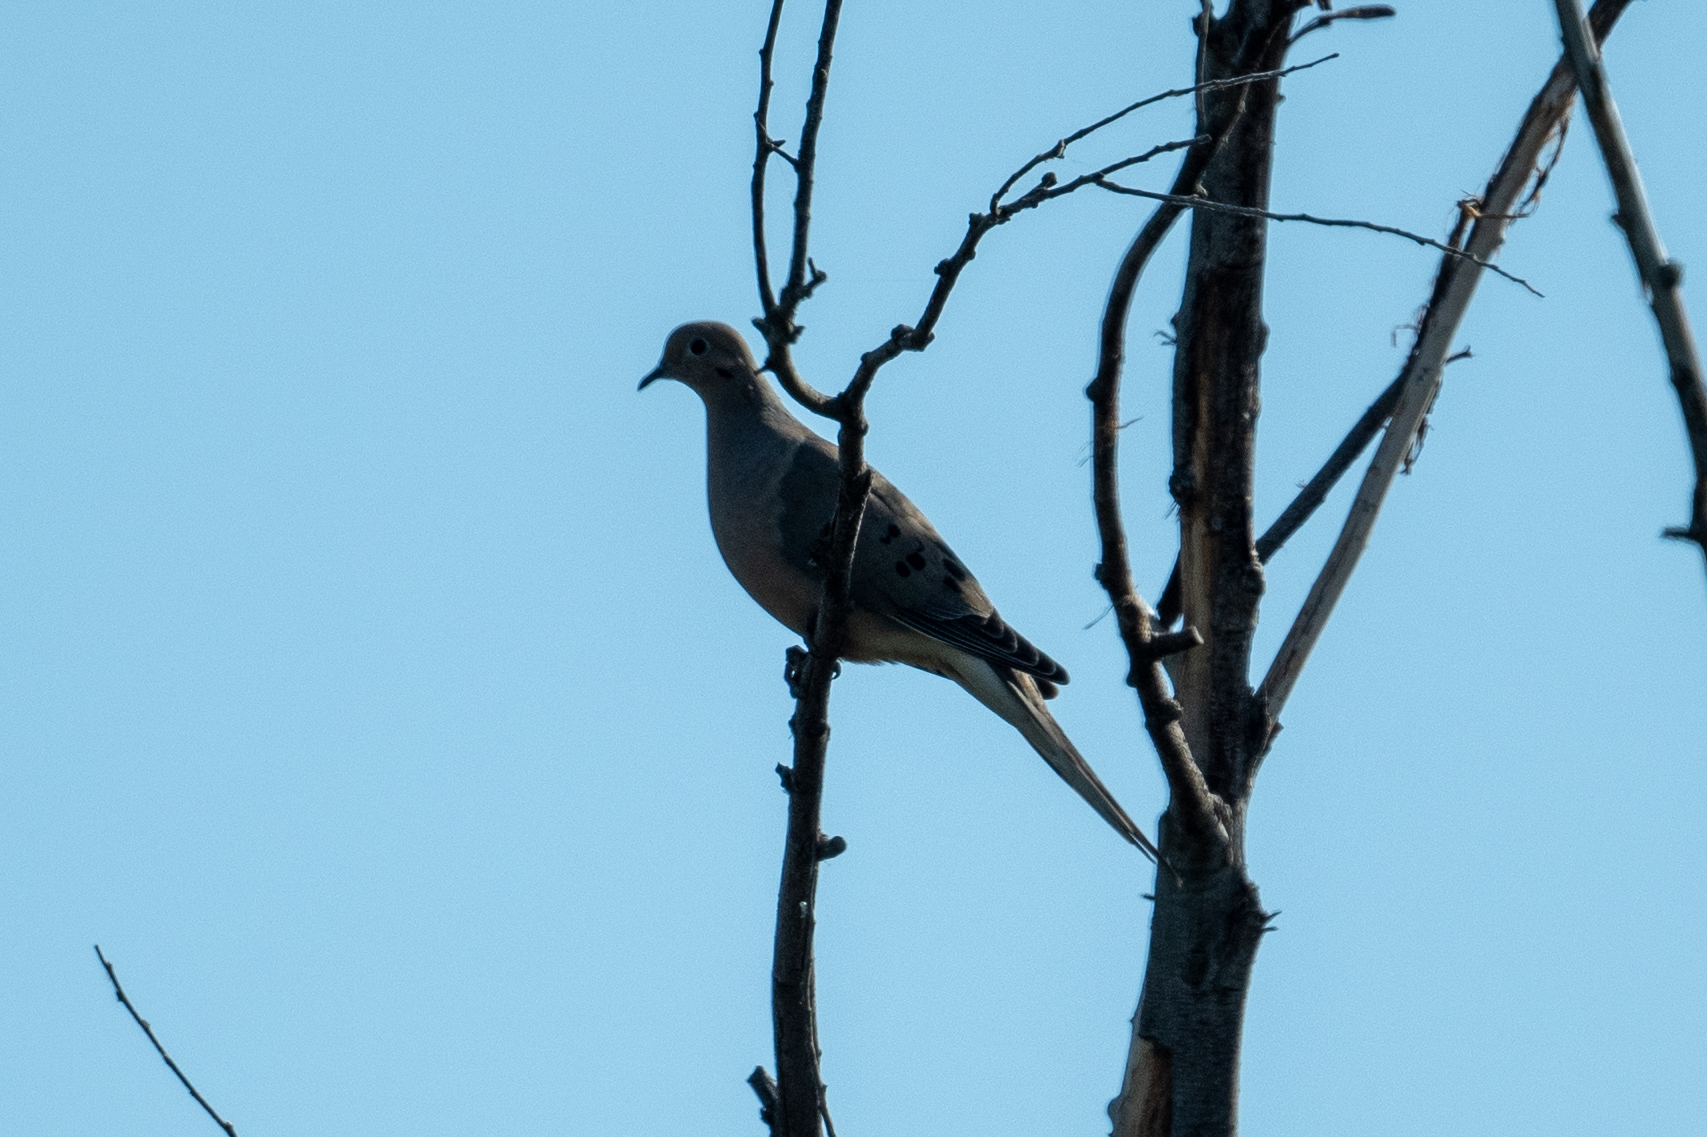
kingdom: Animalia
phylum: Chordata
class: Aves
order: Columbiformes
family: Columbidae
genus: Zenaida
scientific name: Zenaida macroura
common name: Mourning dove
